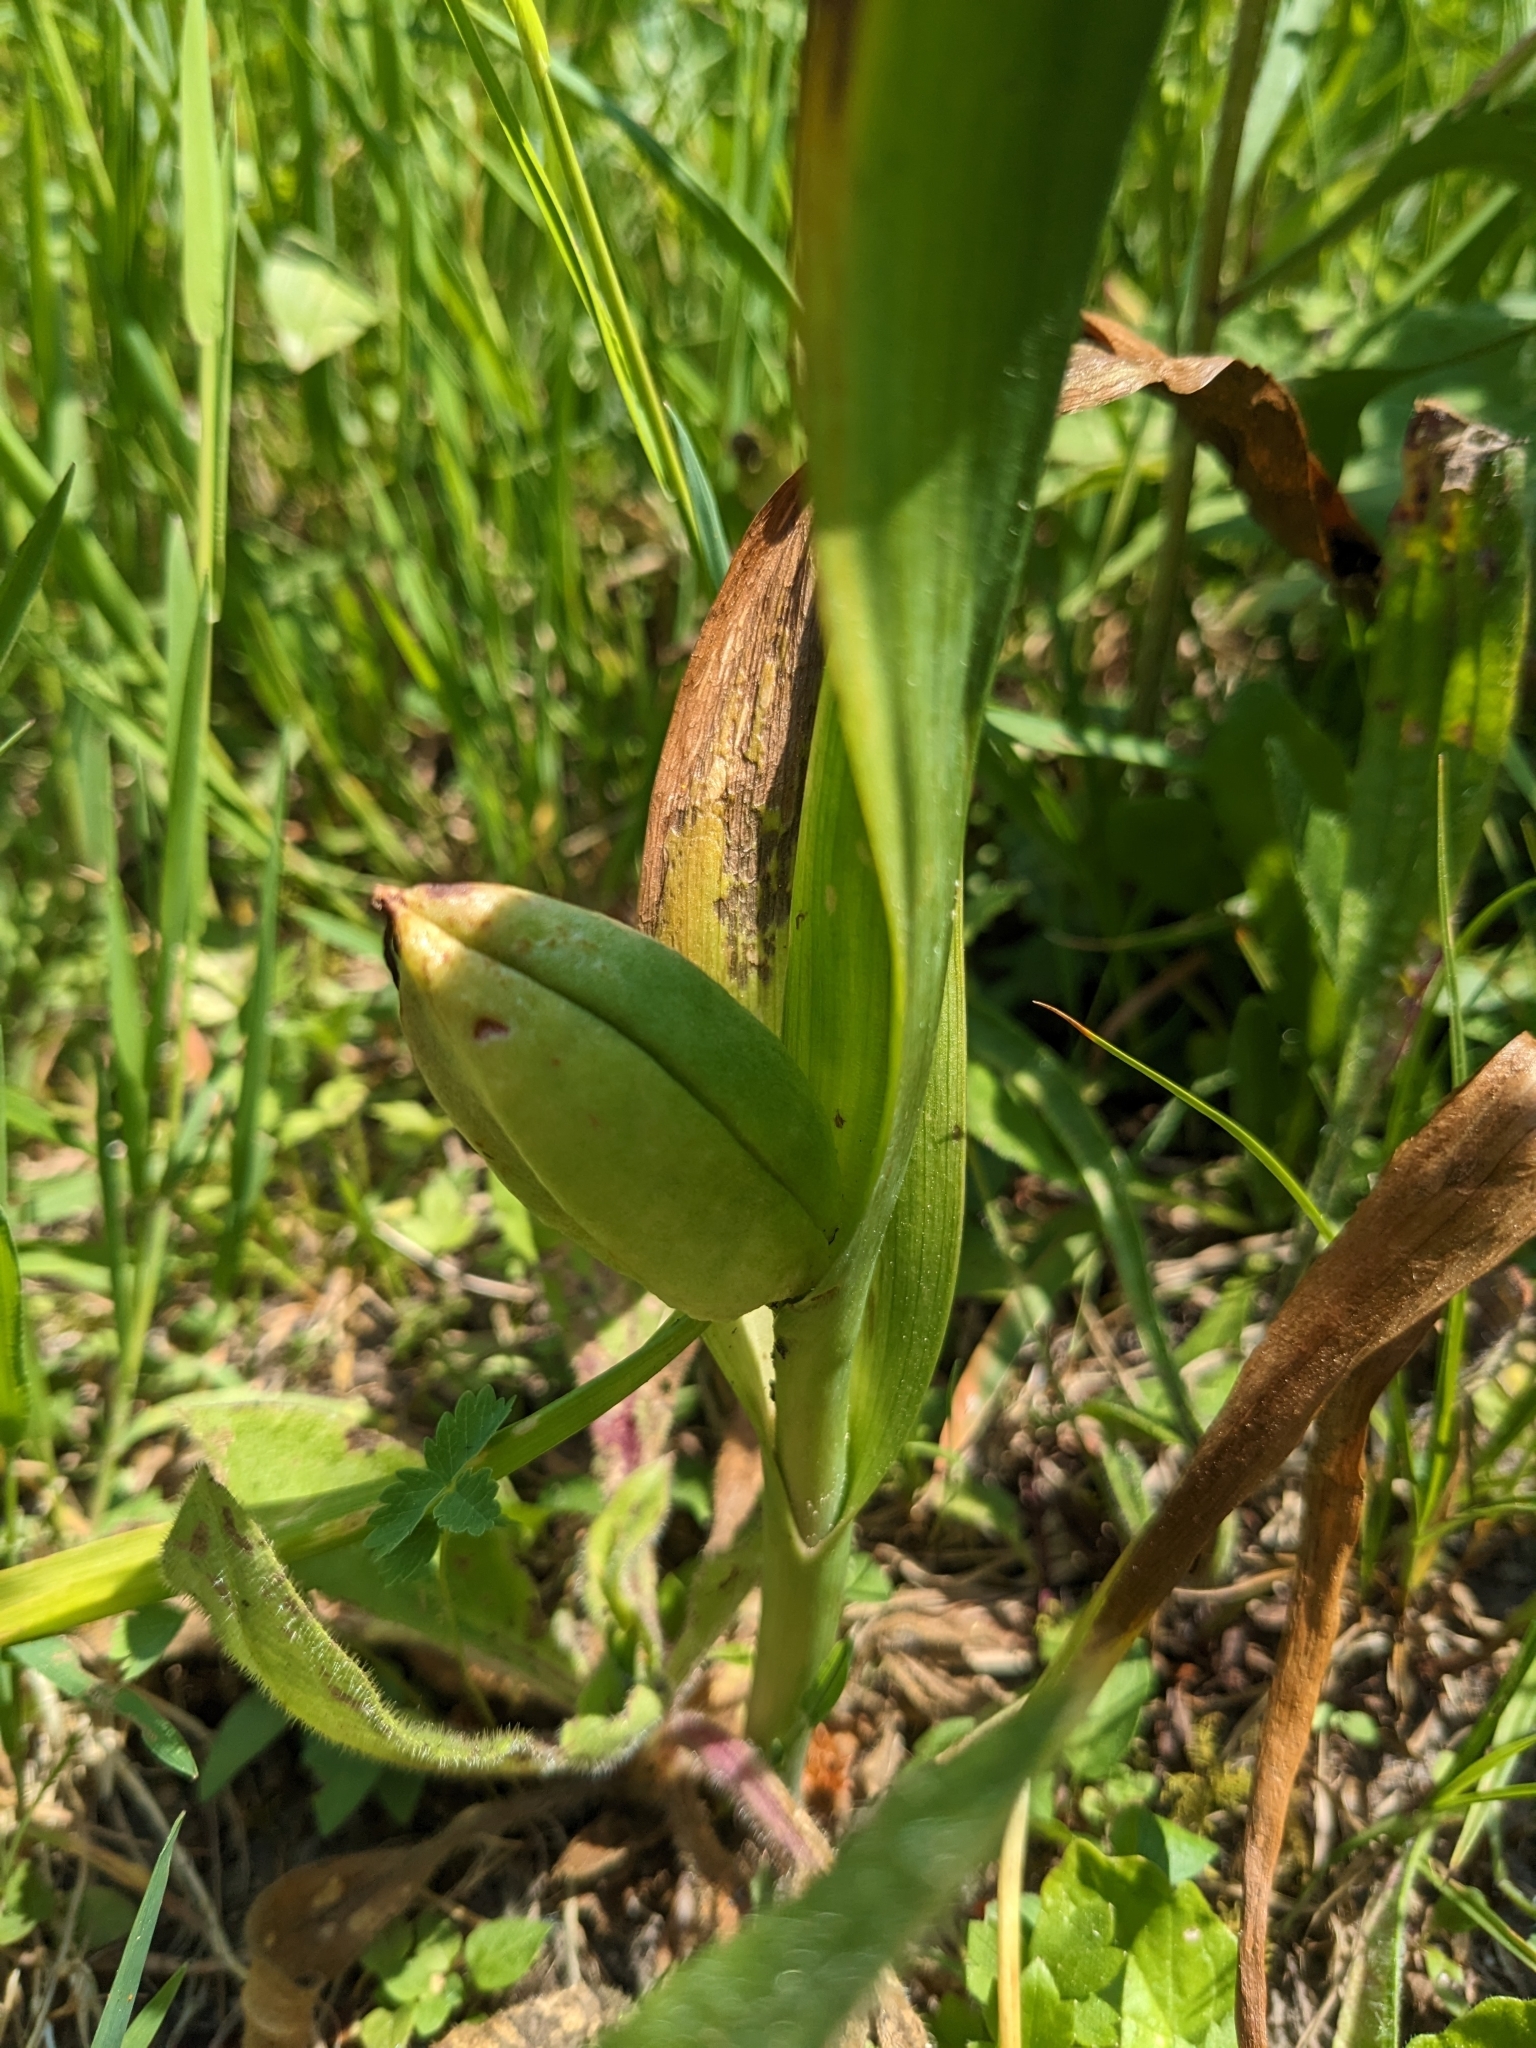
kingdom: Plantae
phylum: Tracheophyta
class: Liliopsida
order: Liliales
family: Colchicaceae
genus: Colchicum
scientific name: Colchicum autumnale
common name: Autumn crocus
